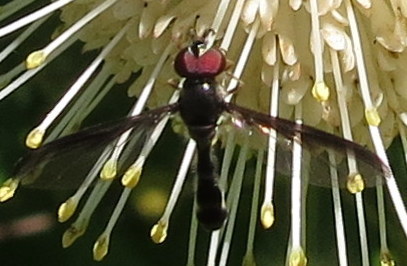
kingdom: Animalia
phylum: Arthropoda
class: Insecta
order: Diptera
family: Syrphidae
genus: Ocyptamus
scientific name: Ocyptamus costatus
